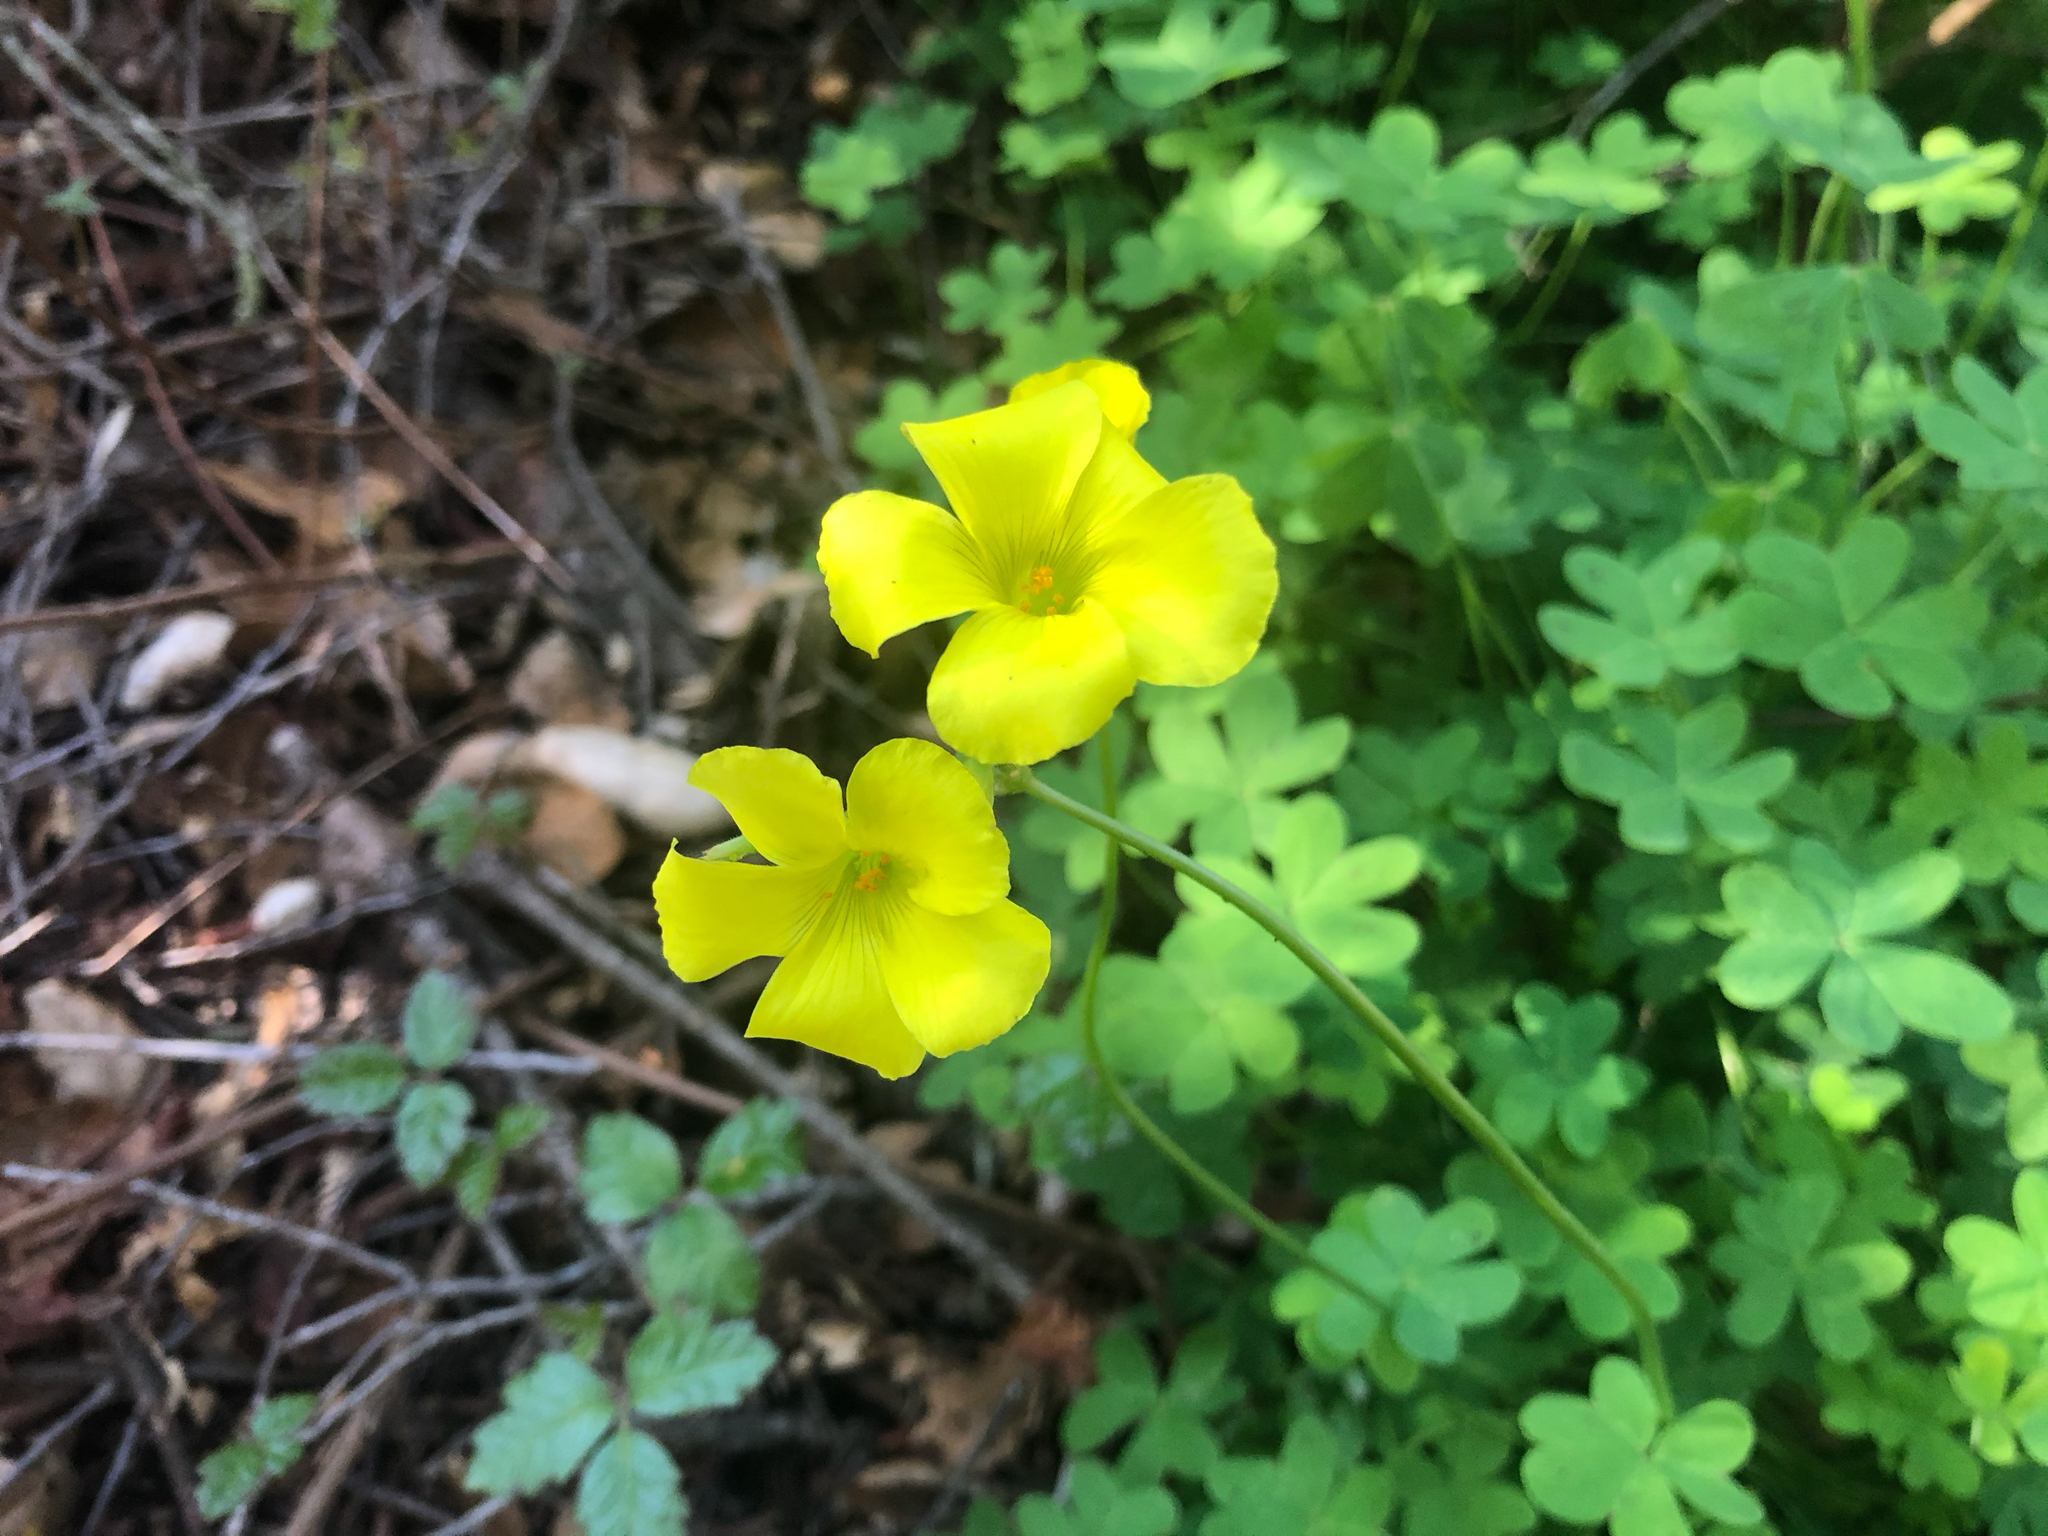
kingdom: Plantae
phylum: Tracheophyta
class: Magnoliopsida
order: Oxalidales
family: Oxalidaceae
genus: Oxalis
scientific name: Oxalis pes-caprae
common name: Bermuda-buttercup
